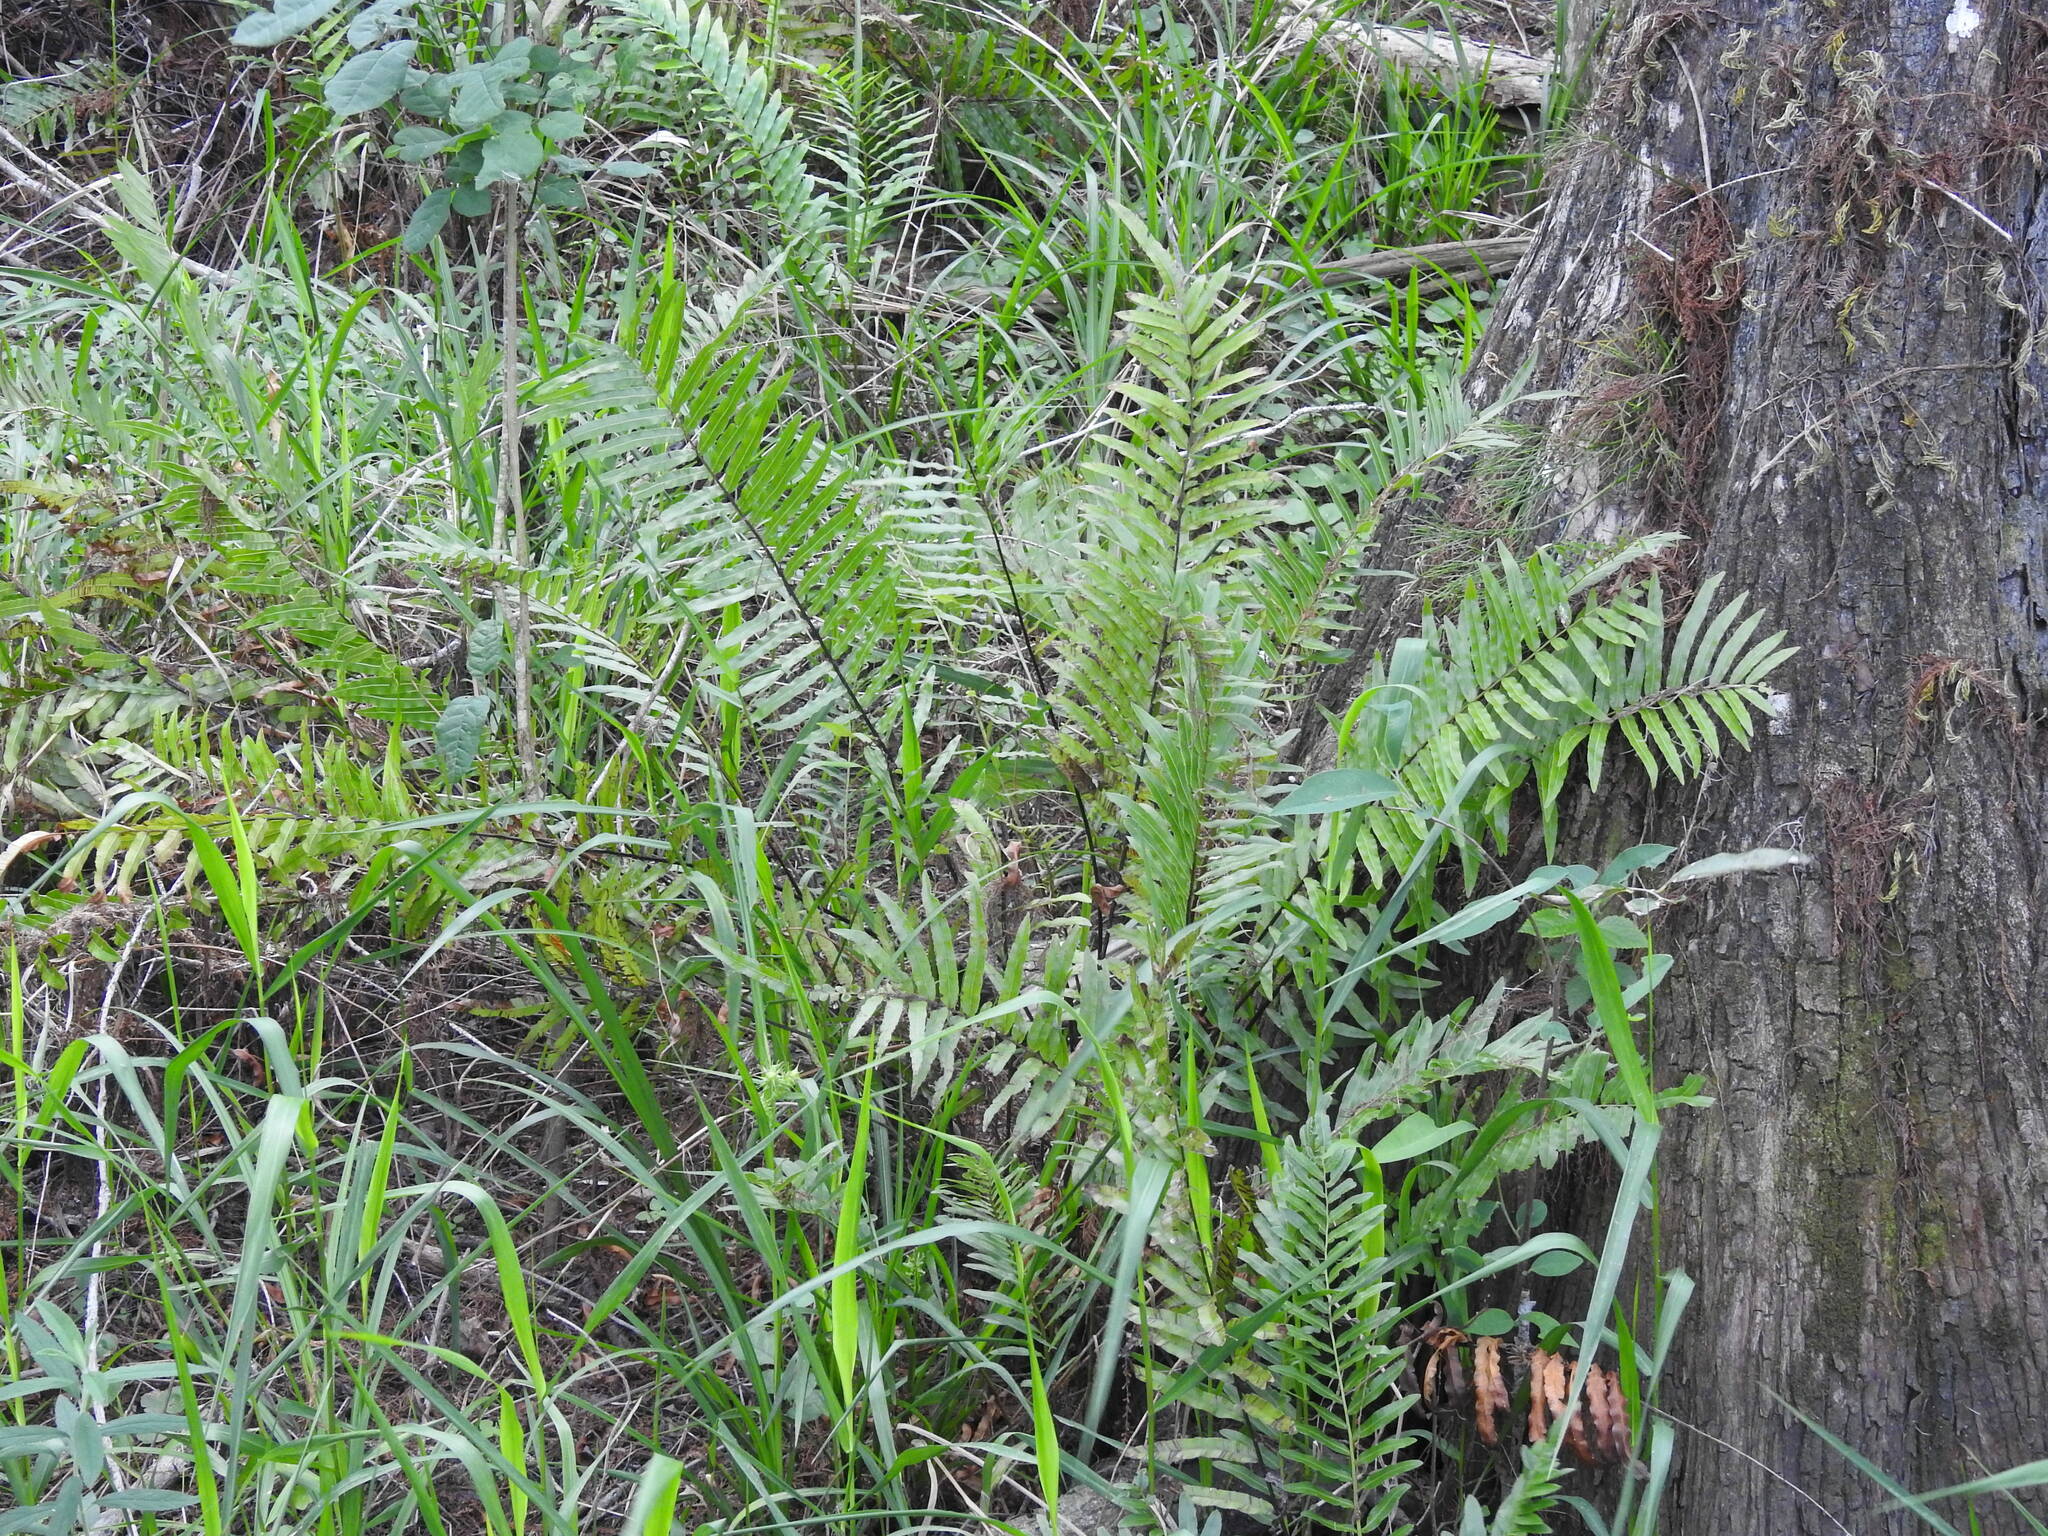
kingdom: Plantae
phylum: Tracheophyta
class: Polypodiopsida
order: Polypodiales
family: Blechnaceae
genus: Telmatoblechnum
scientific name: Telmatoblechnum serrulatum
